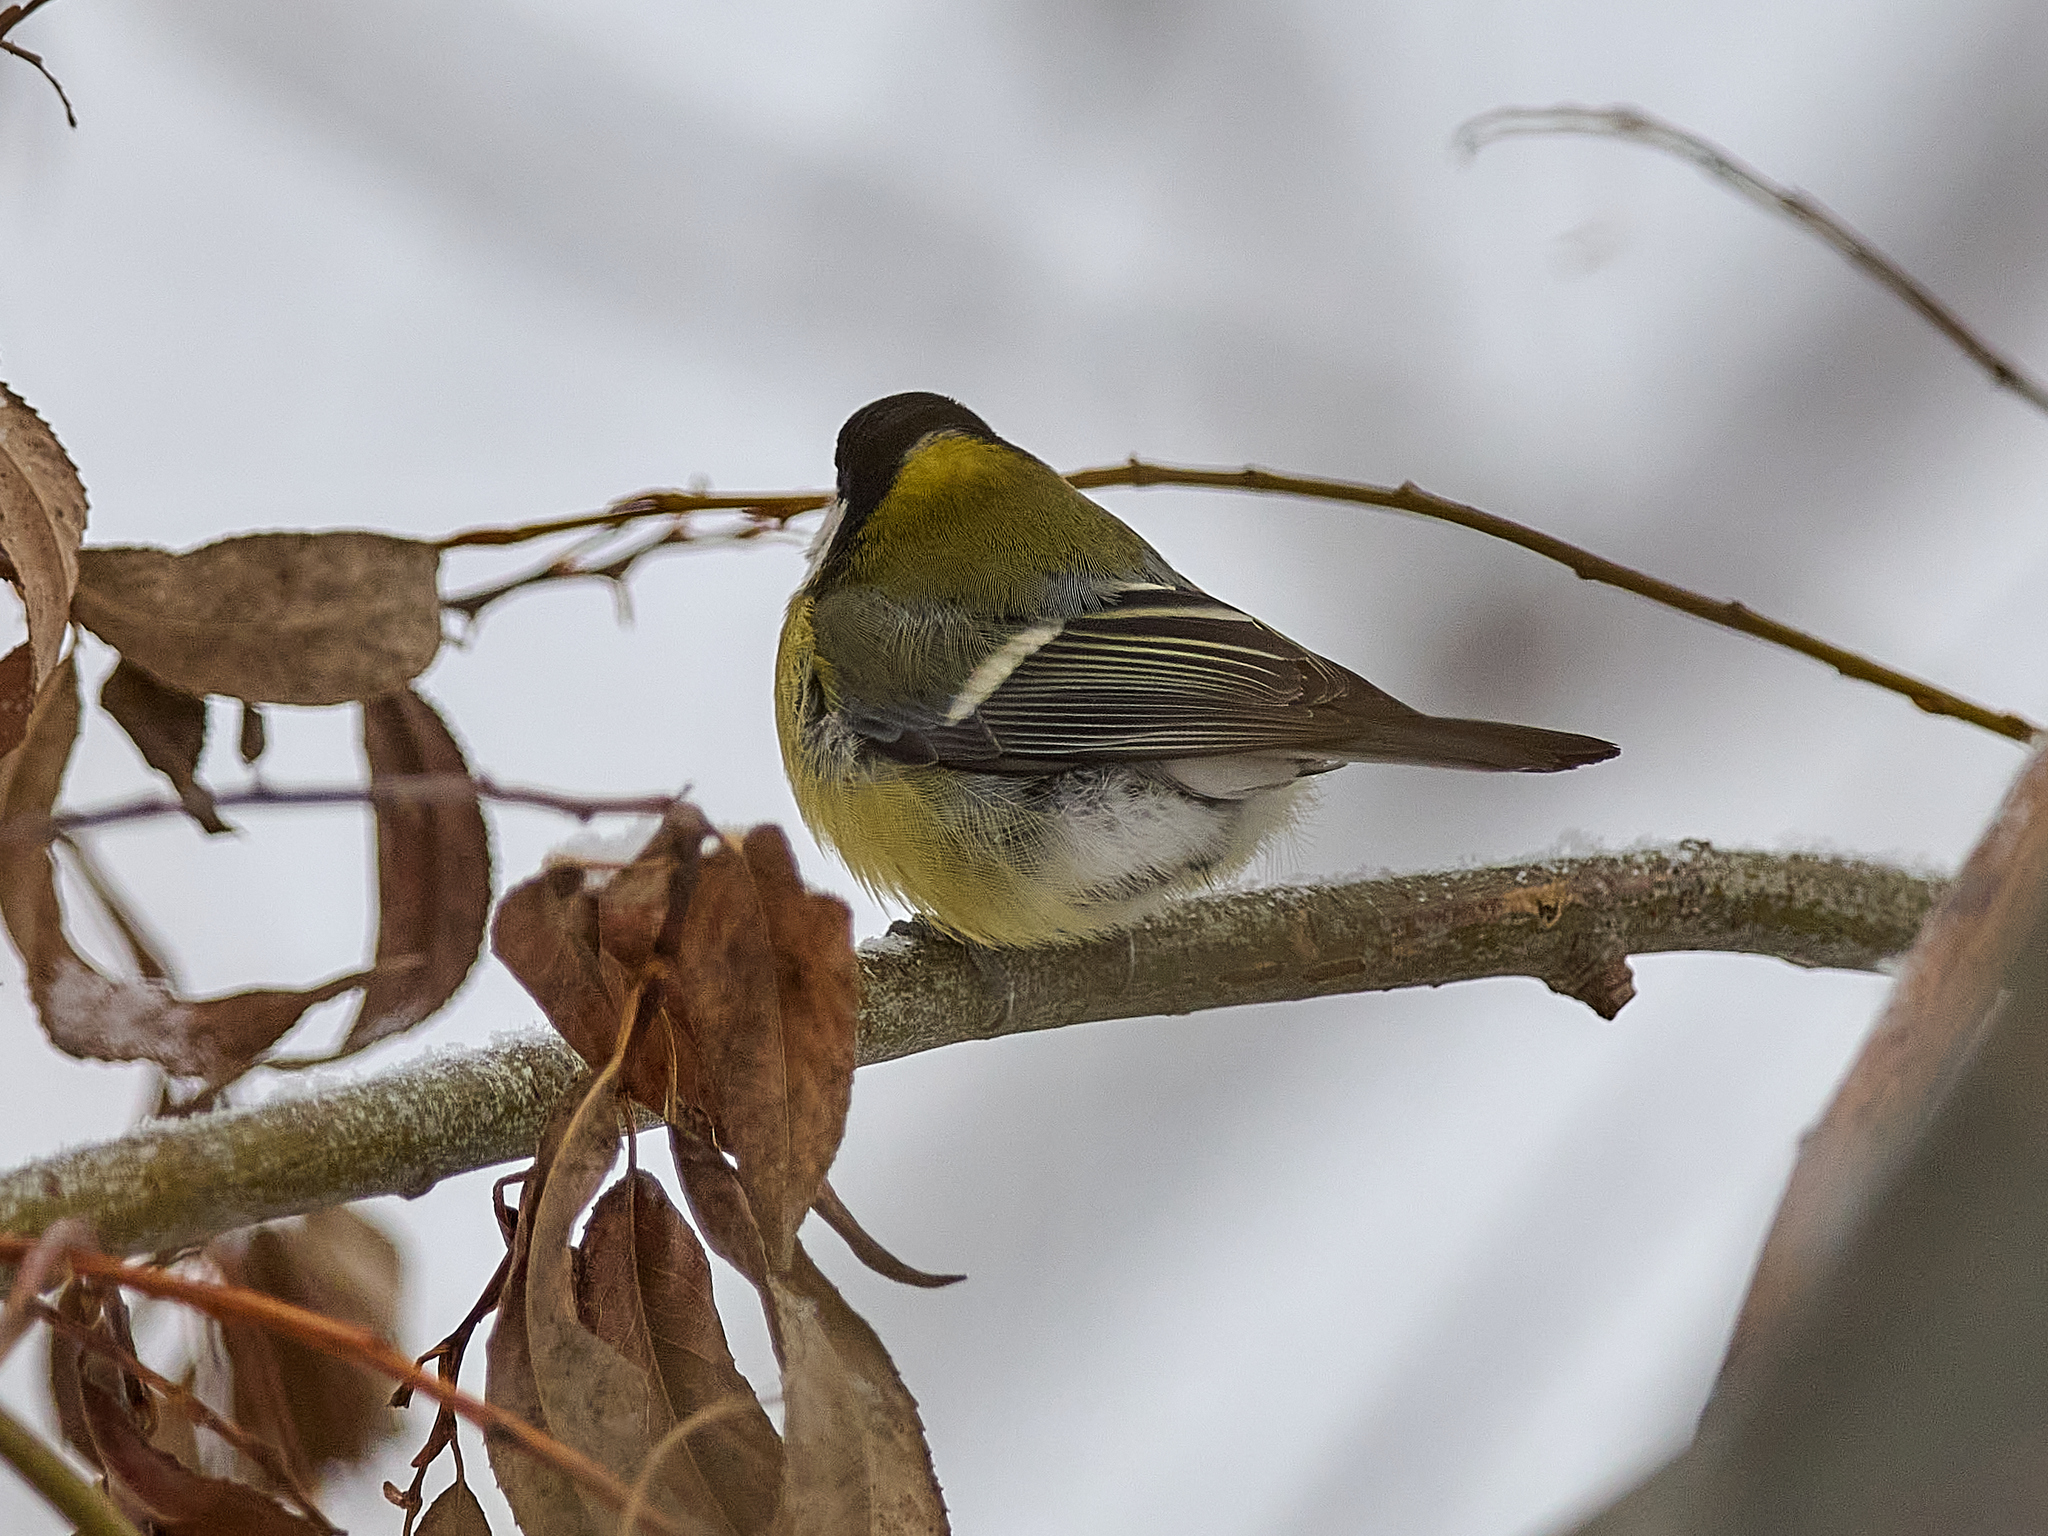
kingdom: Animalia
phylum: Chordata
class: Aves
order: Passeriformes
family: Paridae
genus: Parus
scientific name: Parus major
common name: Great tit
